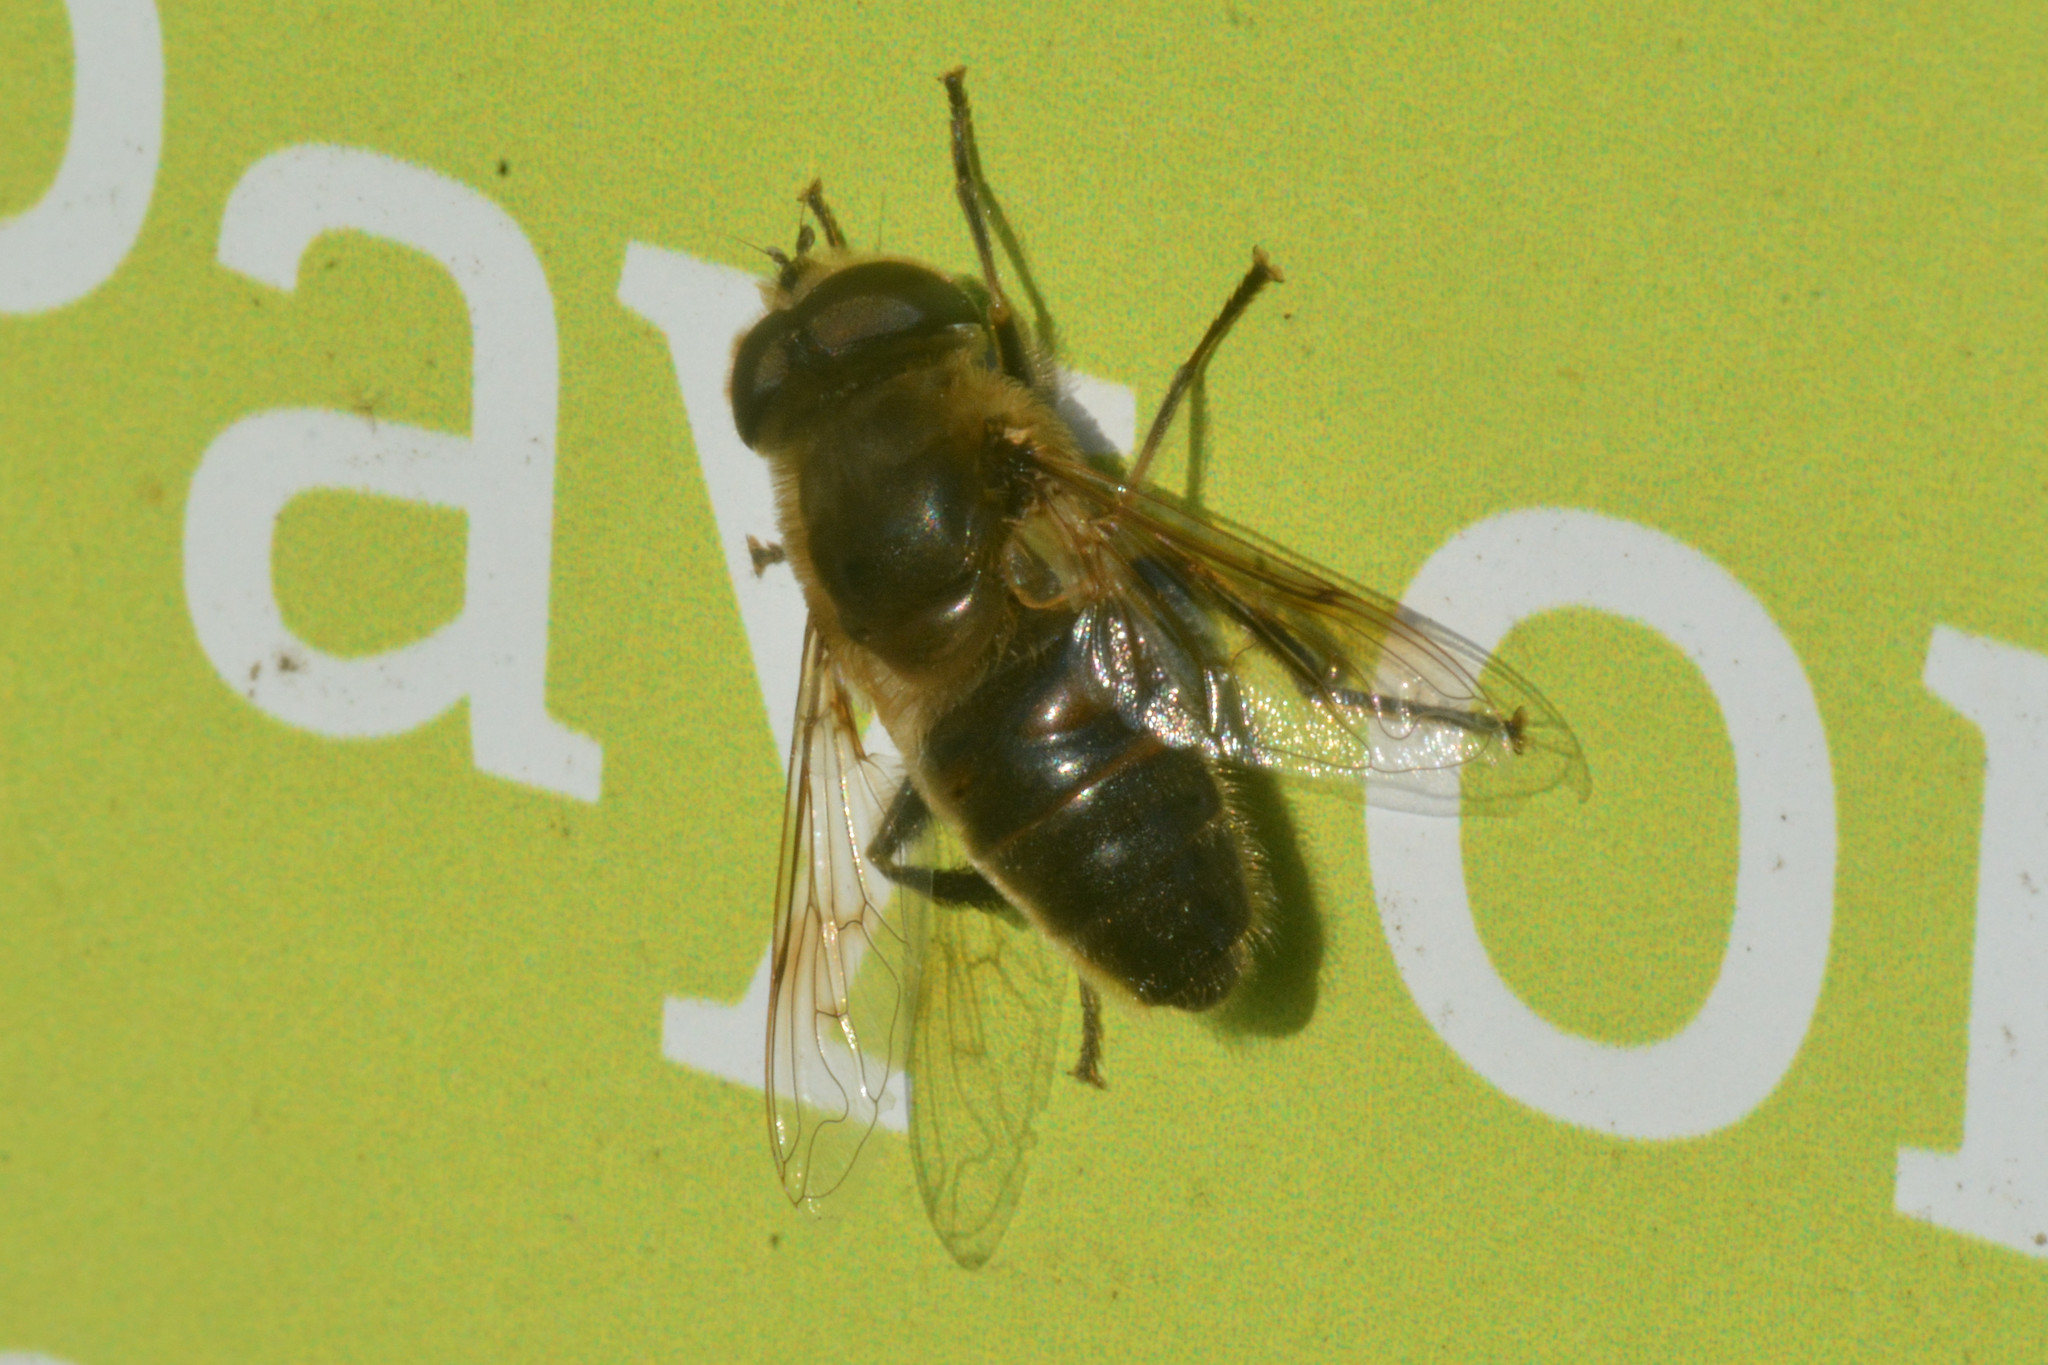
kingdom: Animalia
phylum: Arthropoda
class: Insecta
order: Diptera
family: Syrphidae
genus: Eristalis
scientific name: Eristalis tenax
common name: Drone fly
